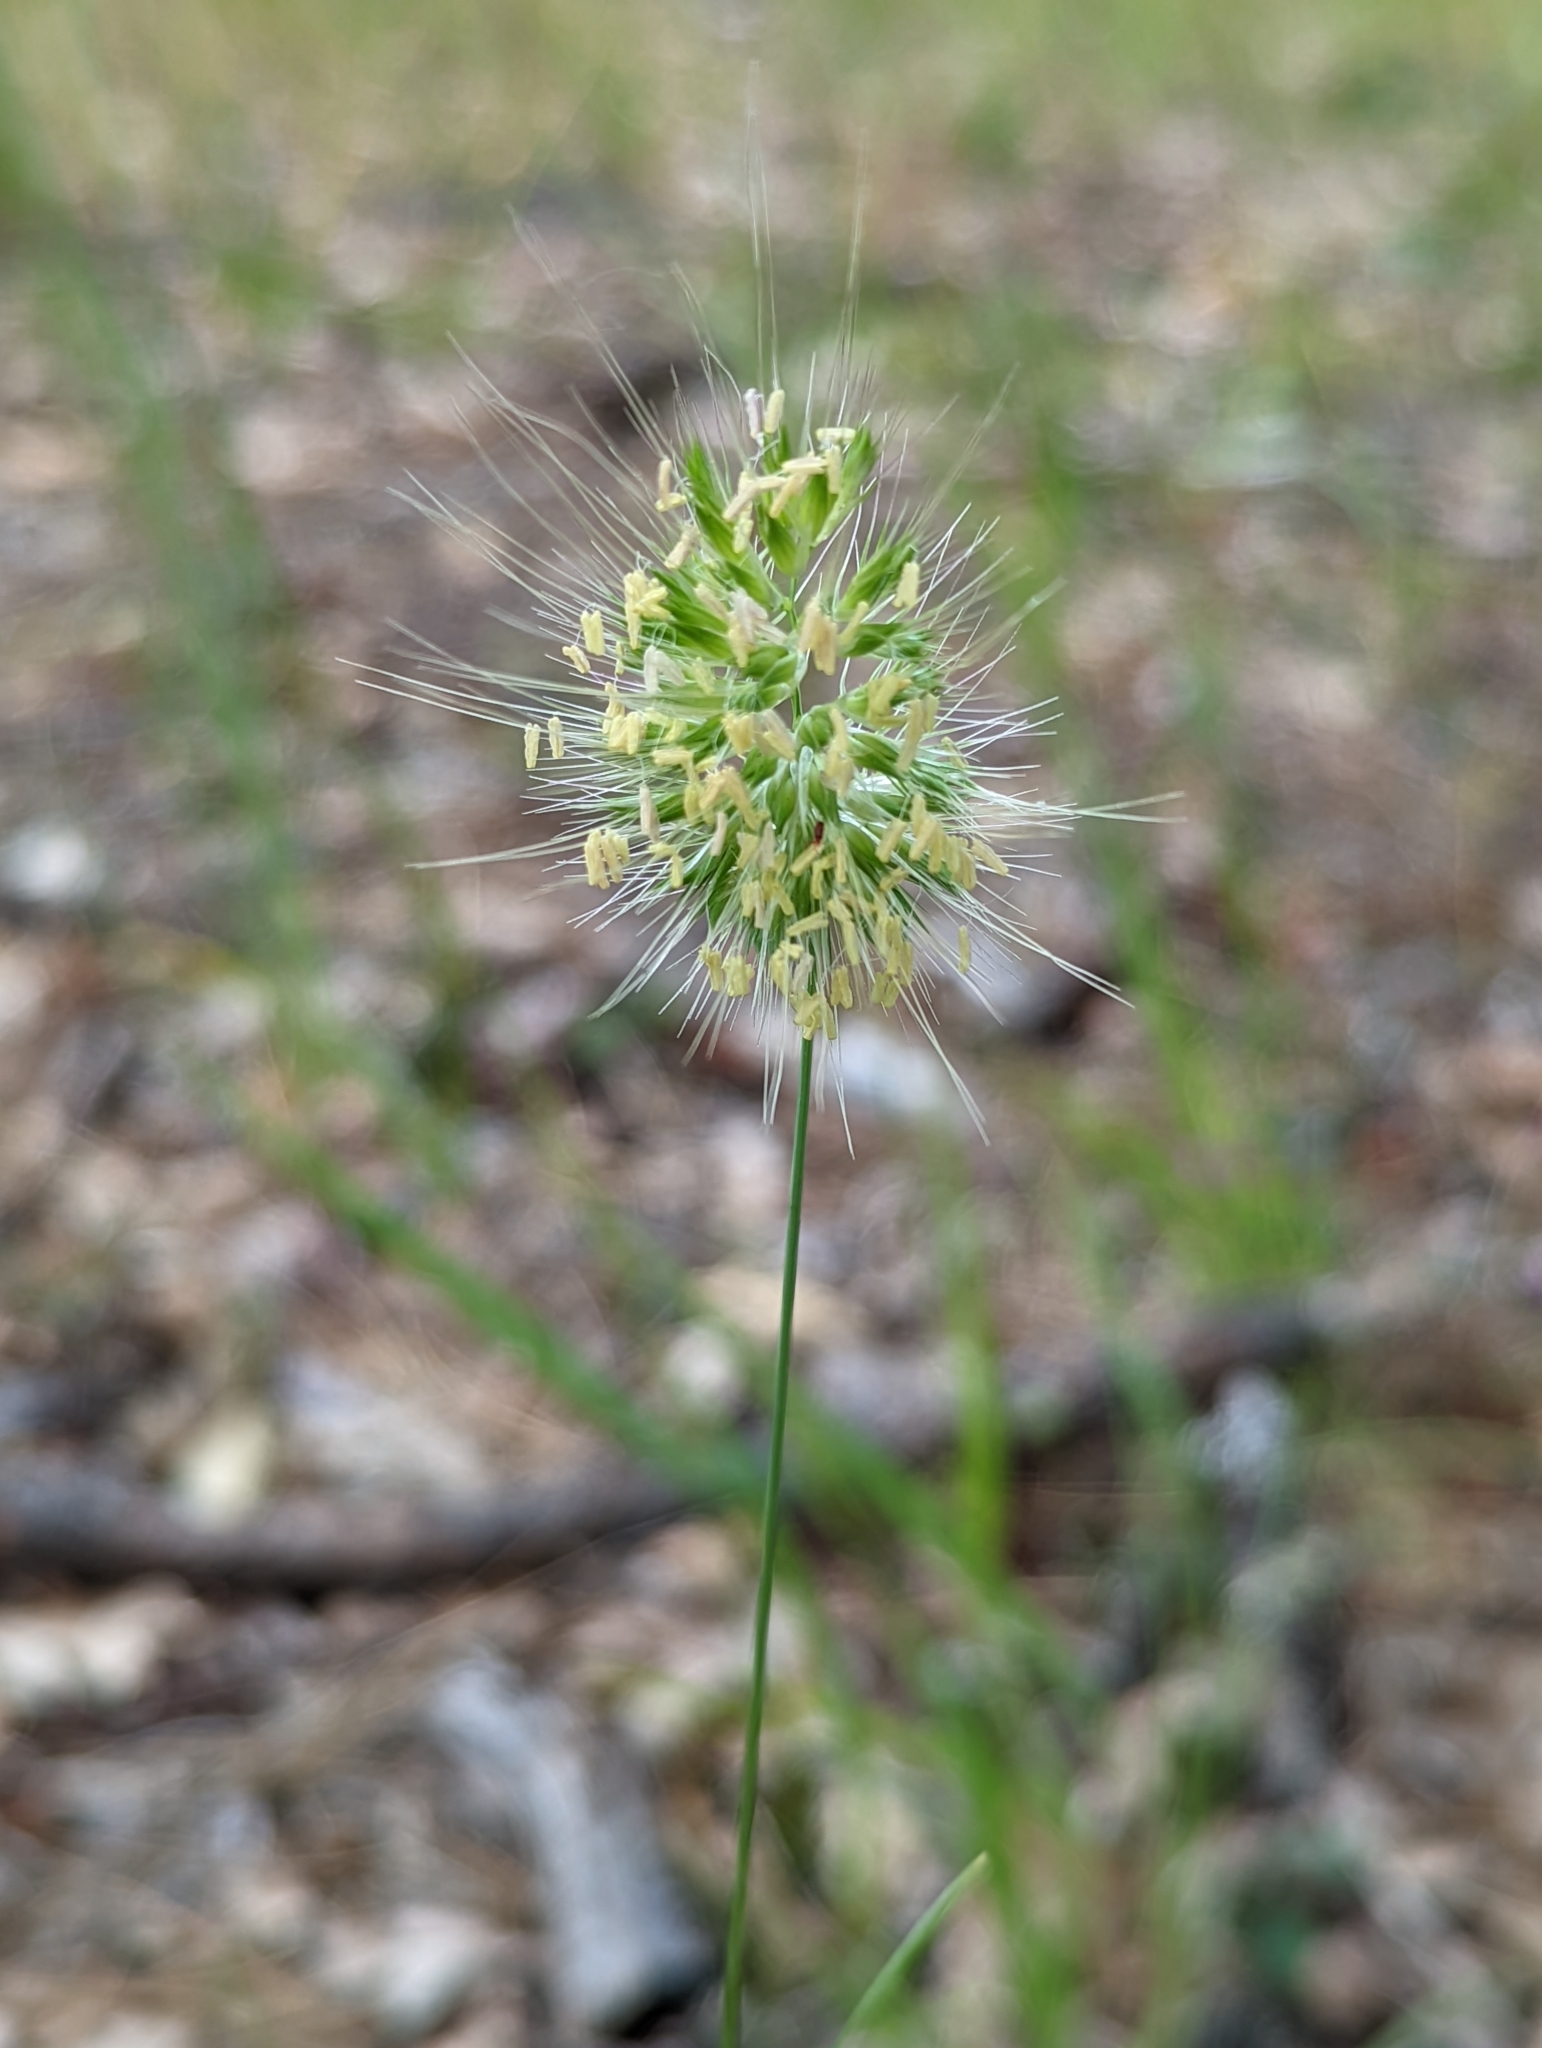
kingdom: Plantae
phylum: Tracheophyta
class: Liliopsida
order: Poales
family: Poaceae
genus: Cynosurus
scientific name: Cynosurus echinatus
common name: Rough dog's-tail
